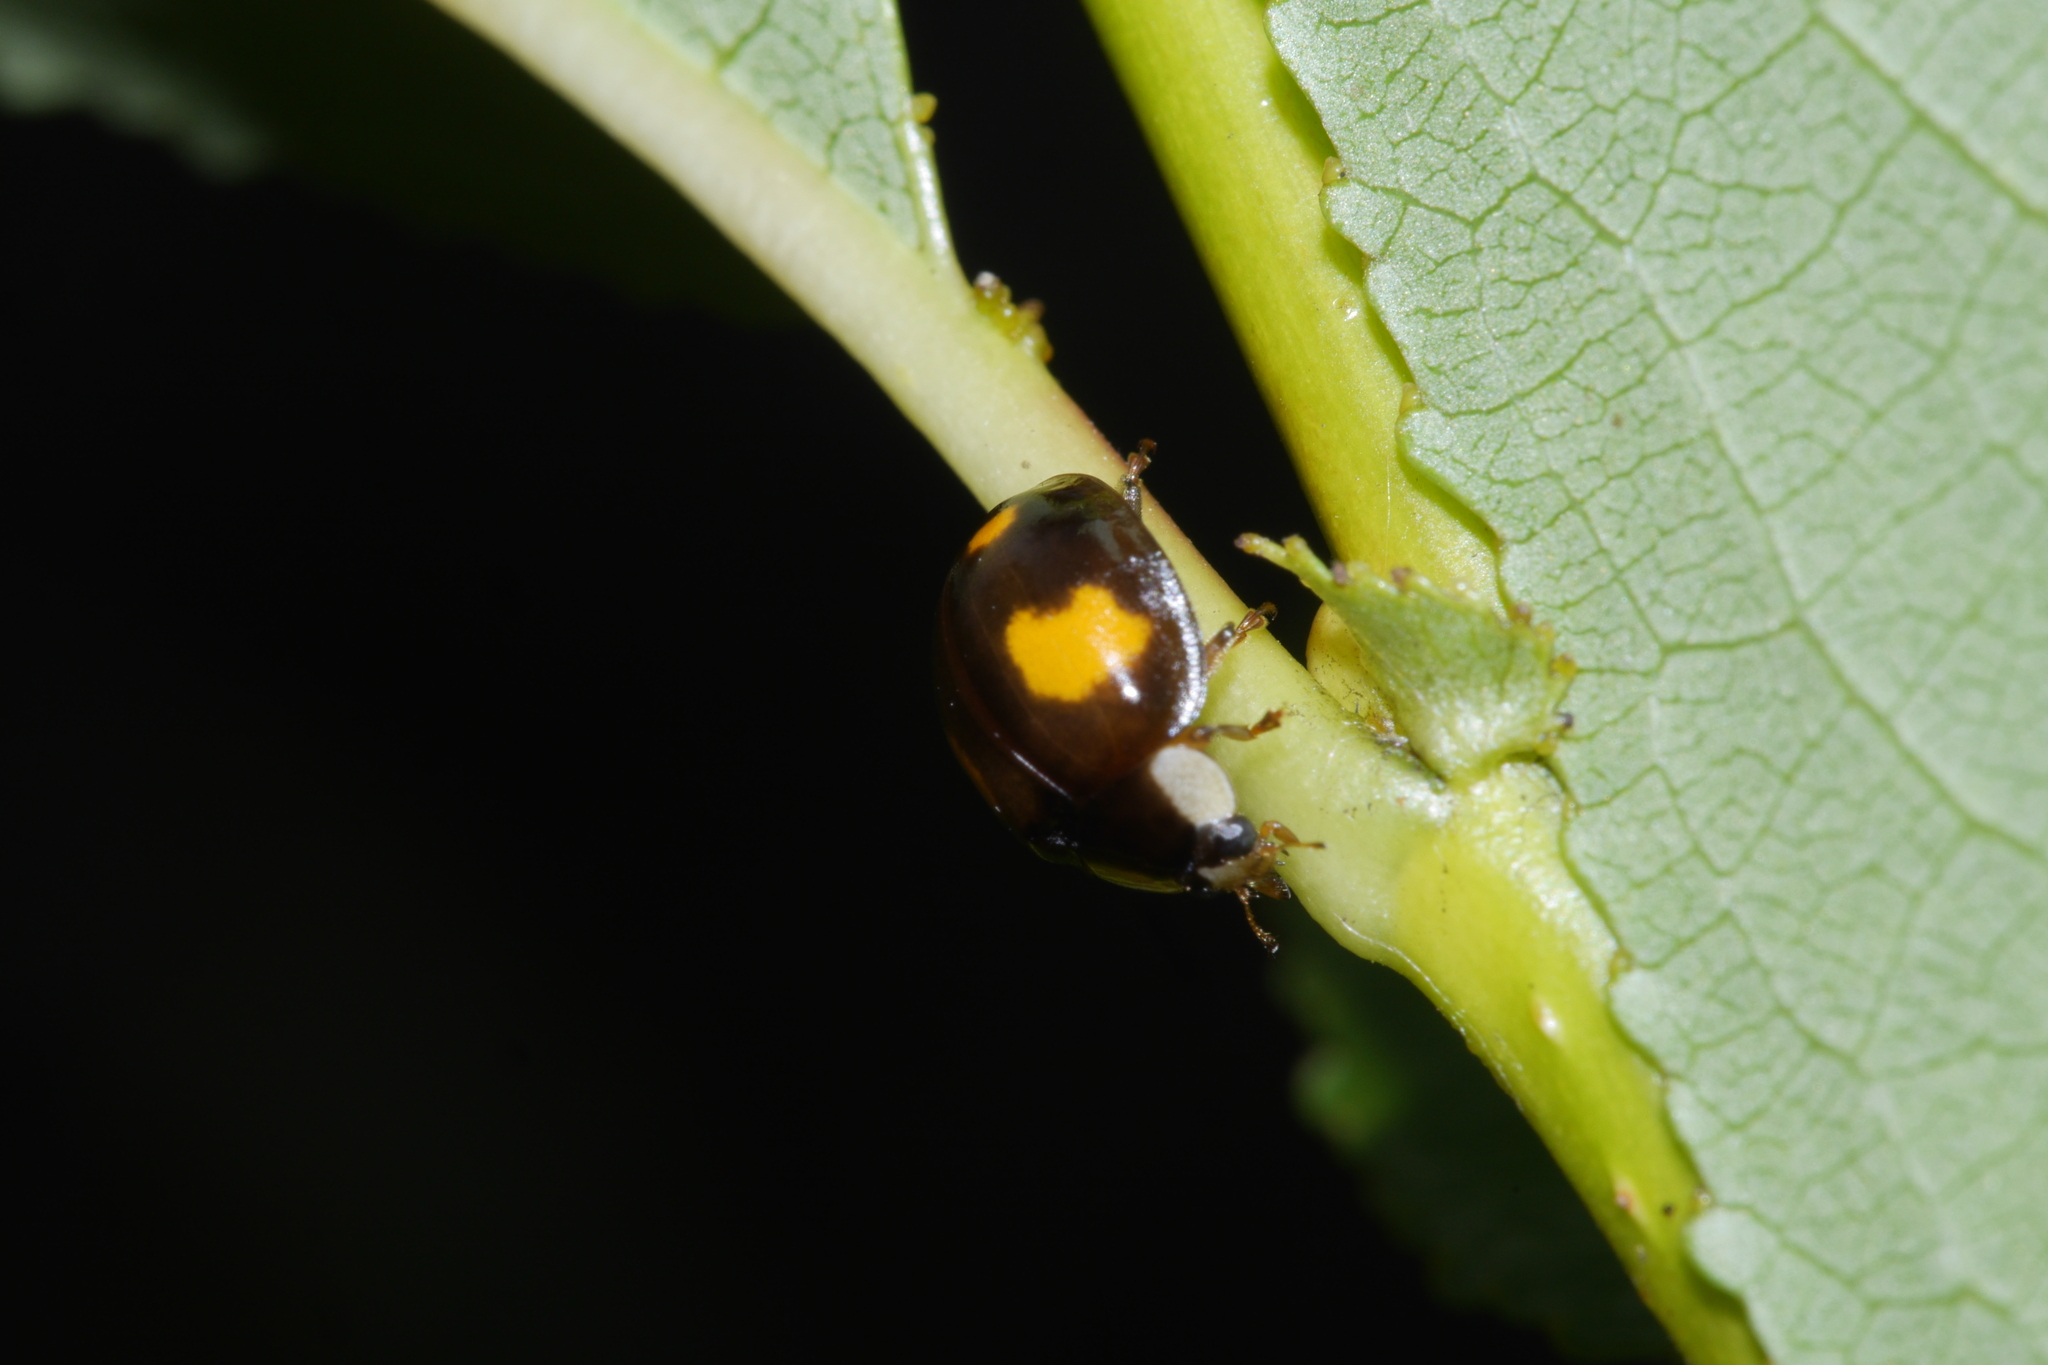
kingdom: Animalia
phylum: Arthropoda
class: Insecta
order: Coleoptera
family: Coccinellidae
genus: Harmonia
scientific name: Harmonia axyridis
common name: Harlequin ladybird
